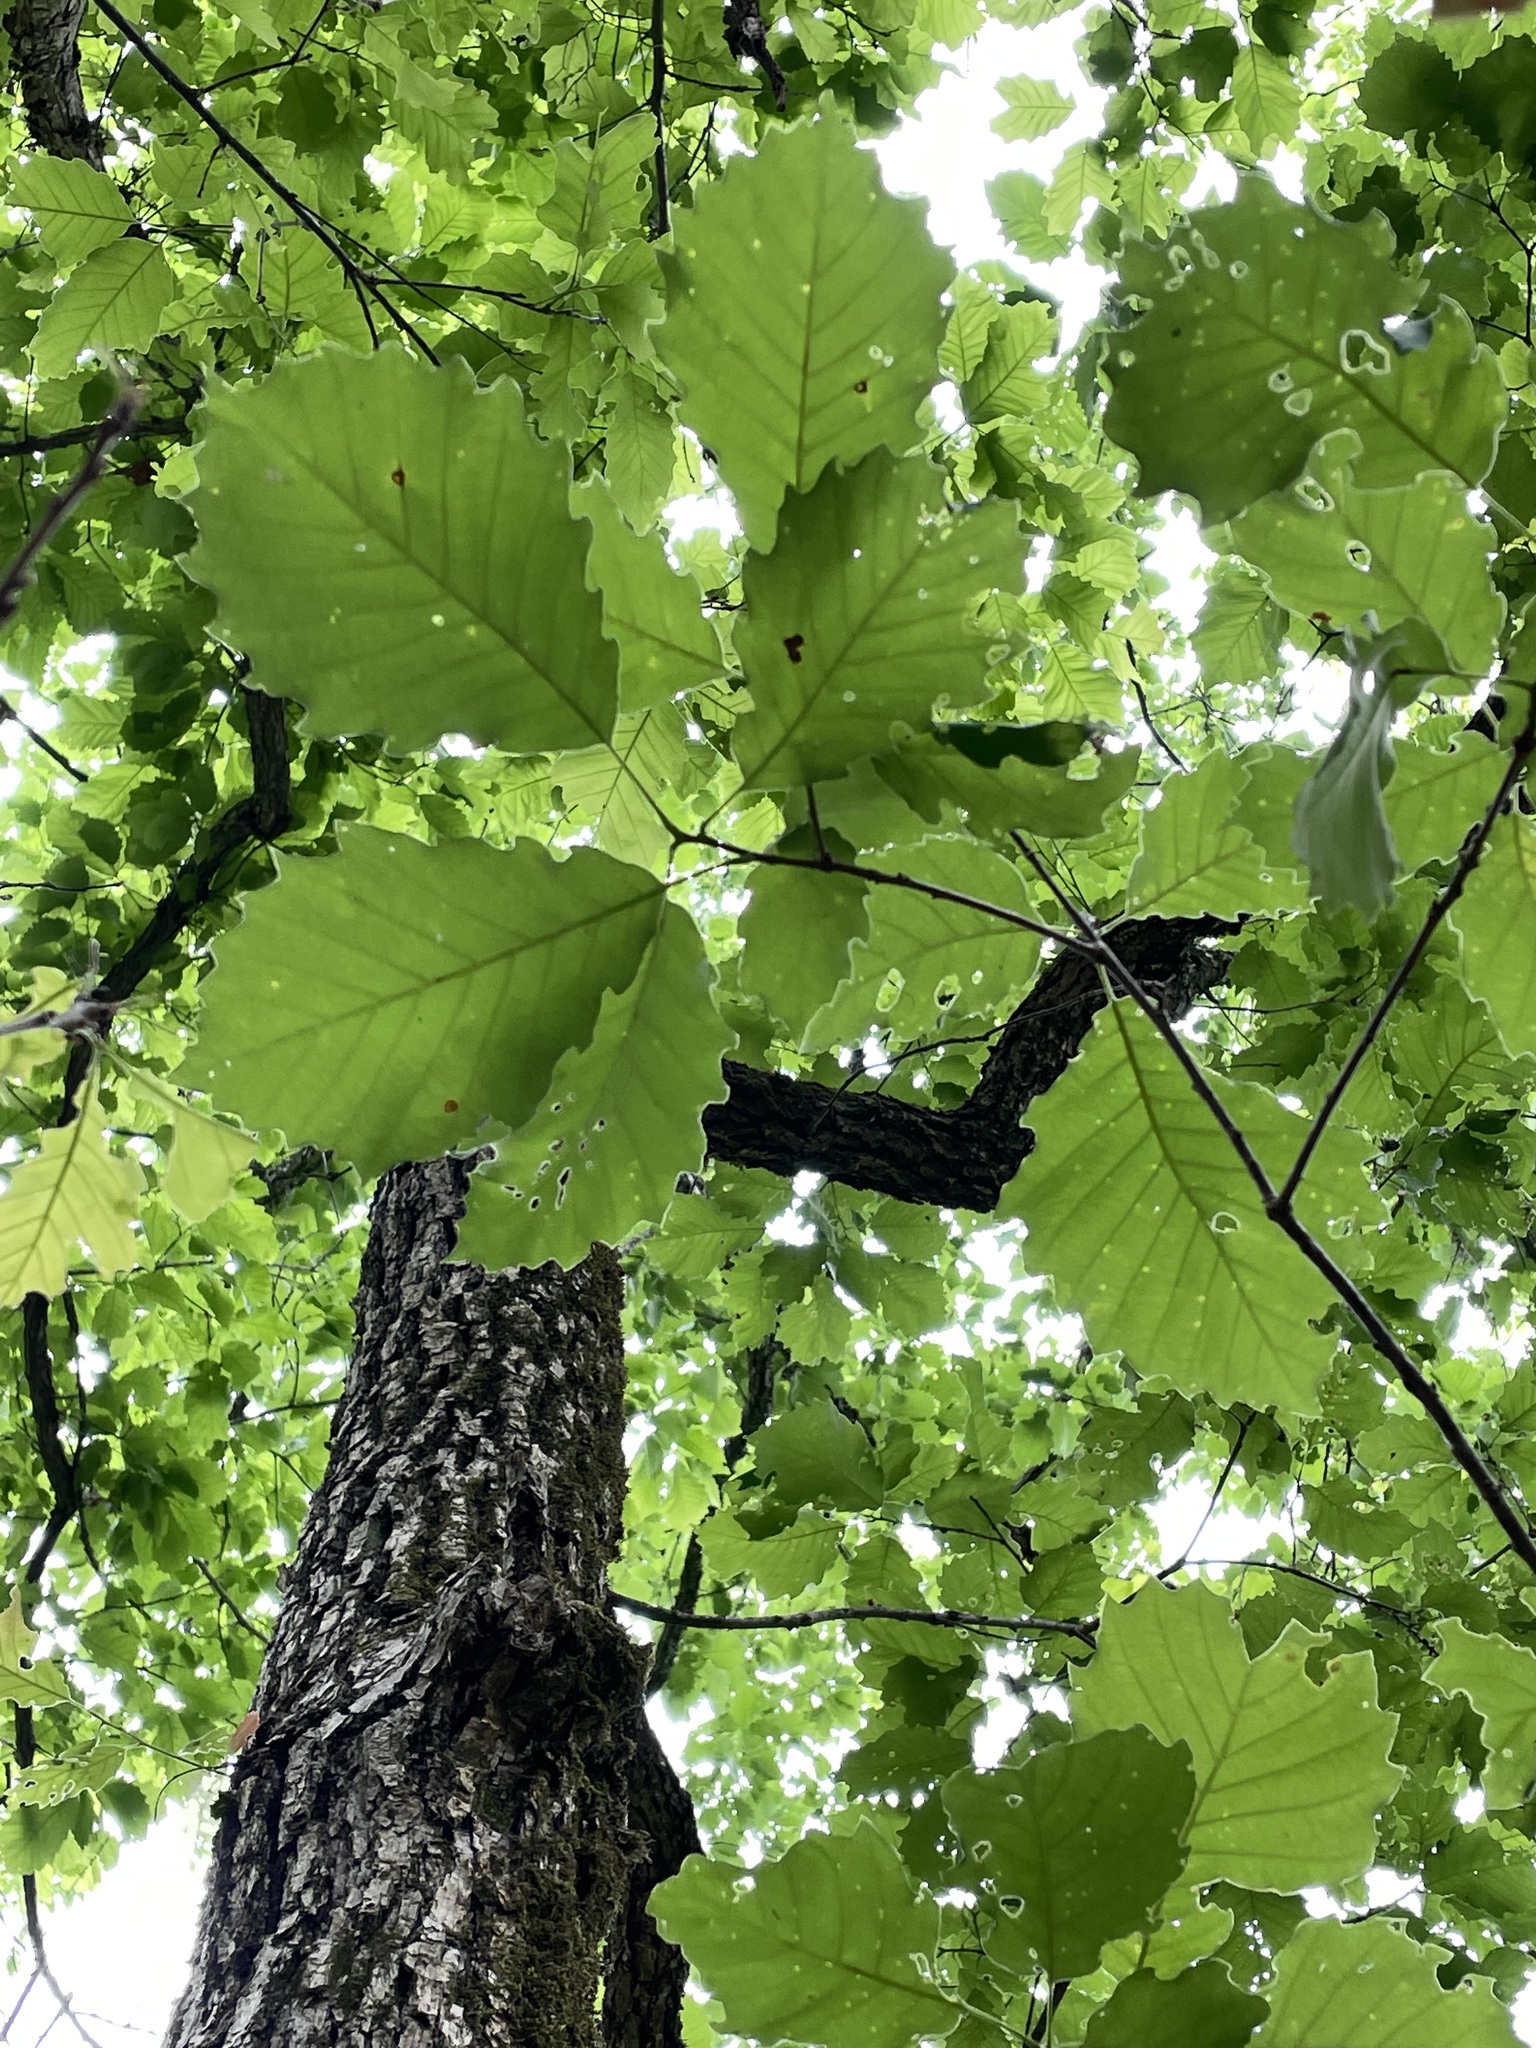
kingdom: Plantae
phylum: Tracheophyta
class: Magnoliopsida
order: Fagales
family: Fagaceae
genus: Quercus
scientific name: Quercus muehlenbergii
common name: Chinkapin oak
